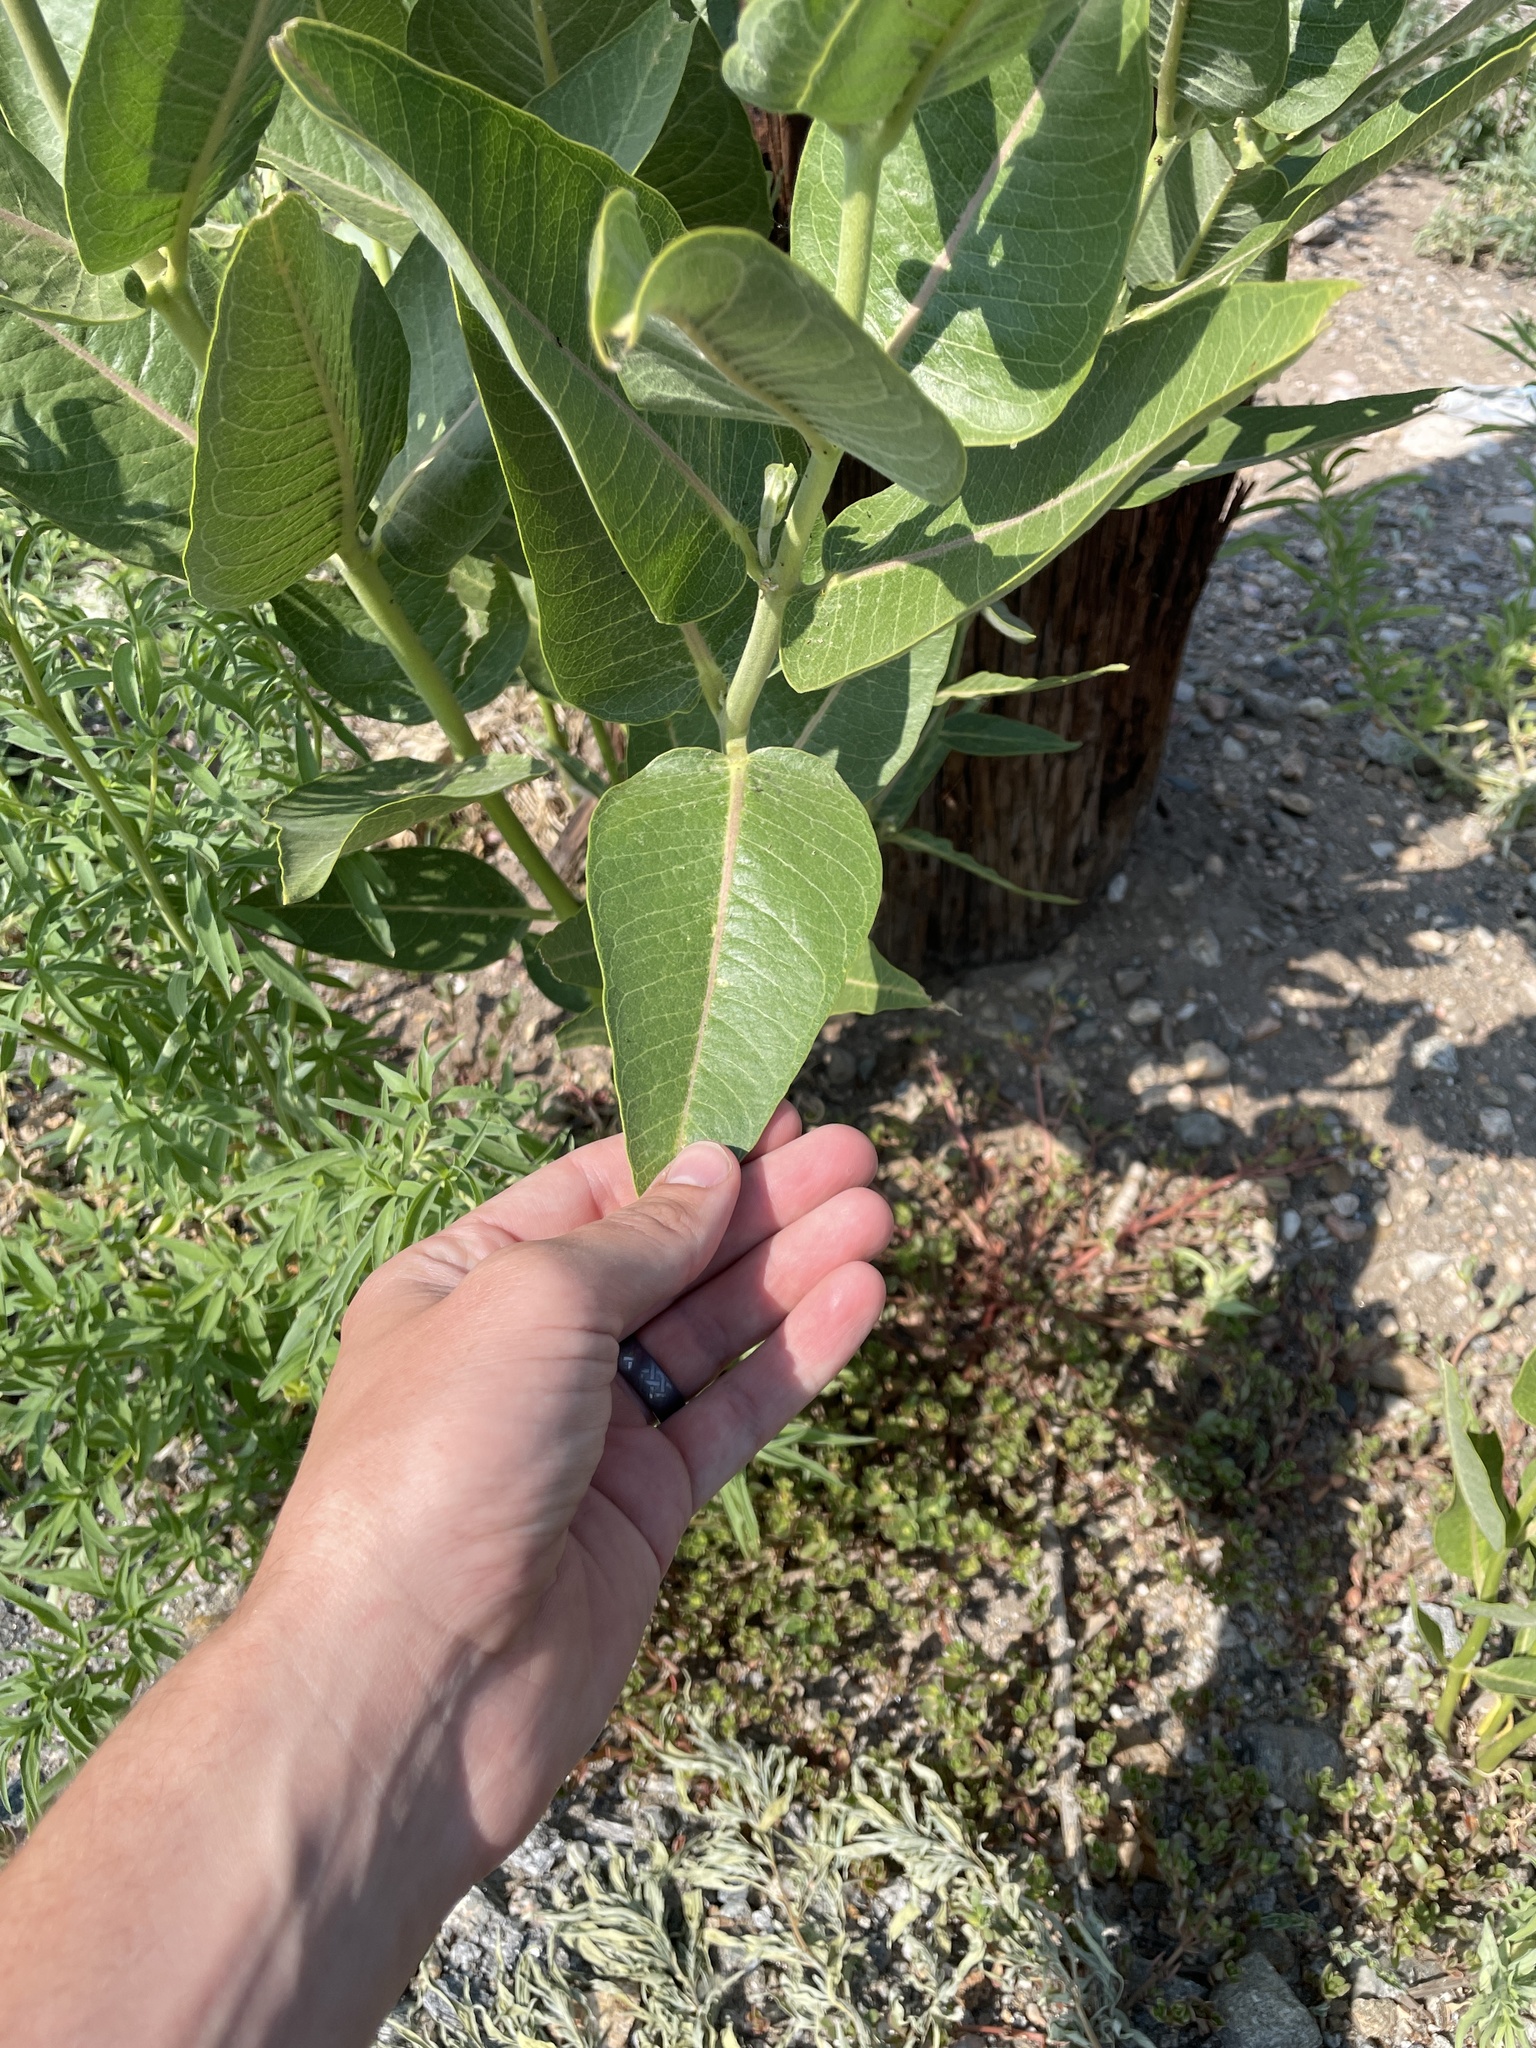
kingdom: Plantae
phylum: Tracheophyta
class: Magnoliopsida
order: Gentianales
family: Apocynaceae
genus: Asclepias
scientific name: Asclepias speciosa
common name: Showy milkweed
